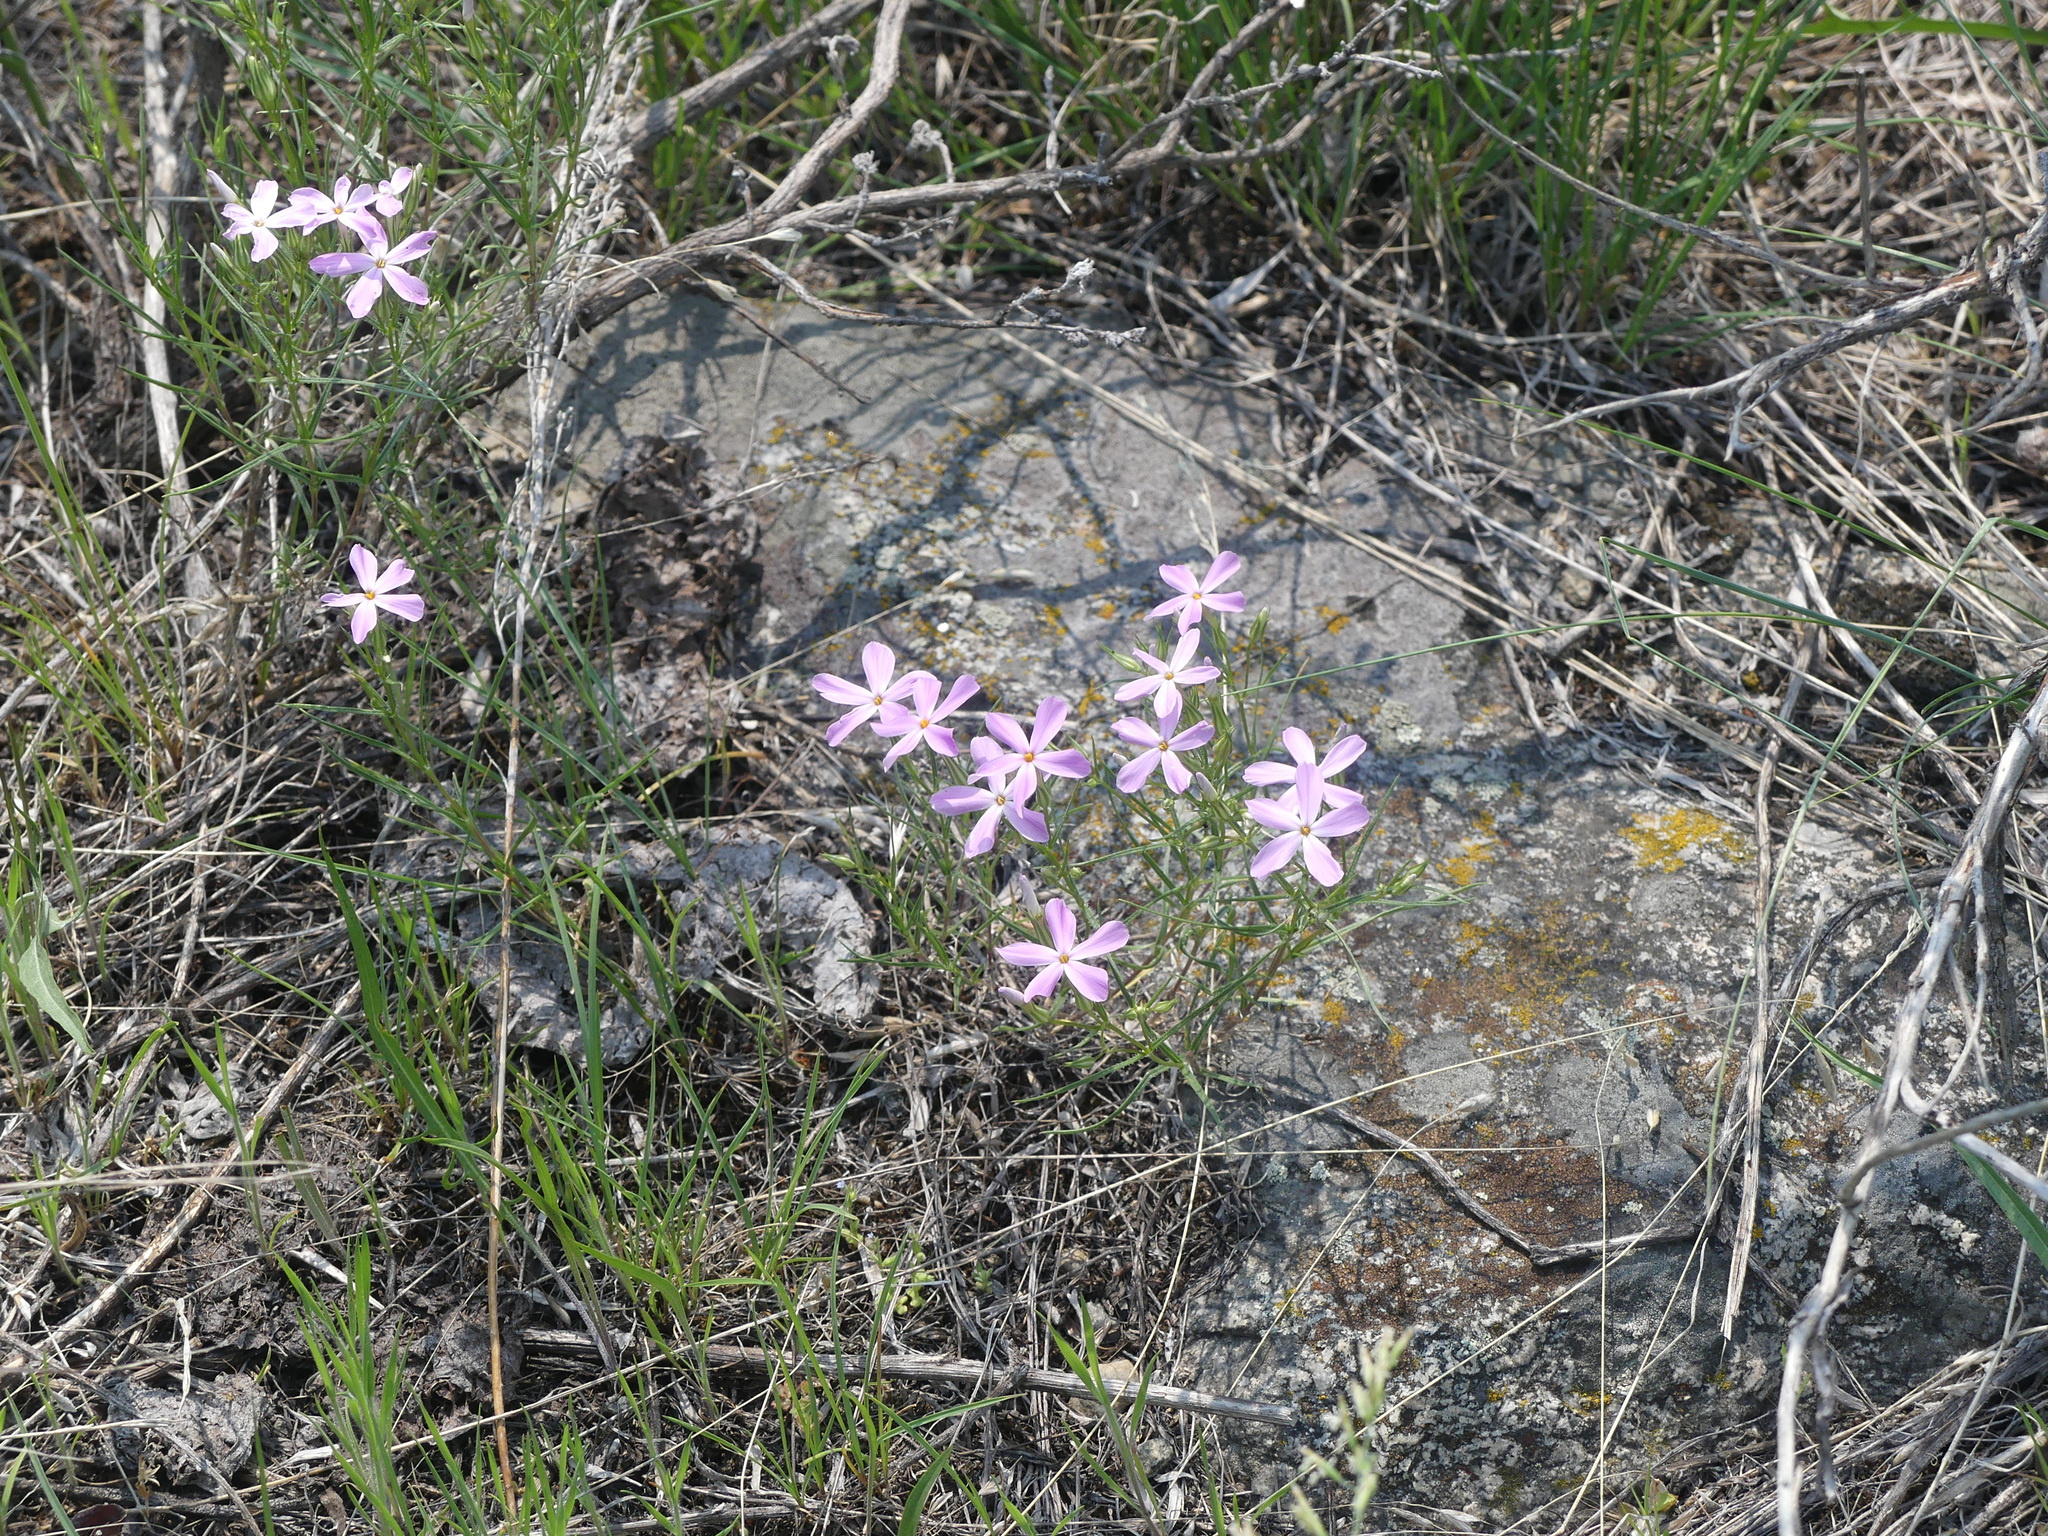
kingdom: Plantae
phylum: Tracheophyta
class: Magnoliopsida
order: Ericales
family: Polemoniaceae
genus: Phlox
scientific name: Phlox longifolia
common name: Longleaf phlox
